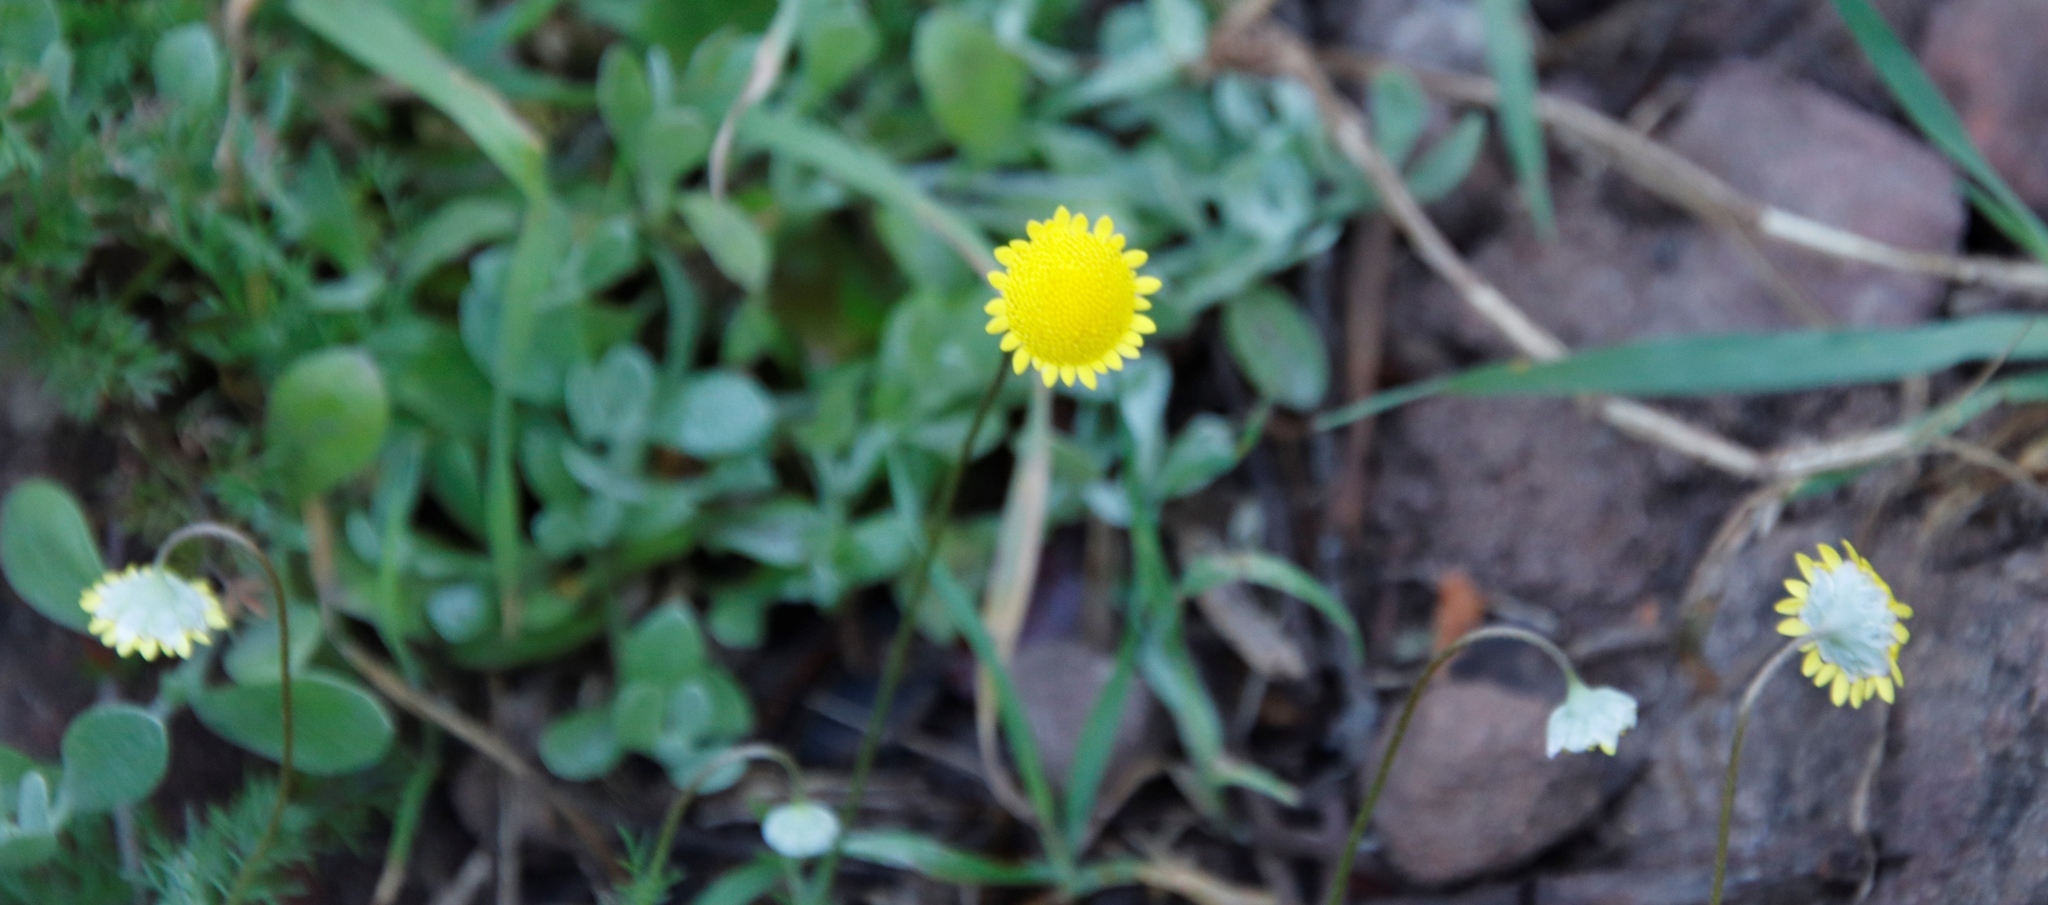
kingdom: Plantae
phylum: Tracheophyta
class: Magnoliopsida
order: Asterales
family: Asteraceae
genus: Cotula
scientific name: Cotula pruinosa
